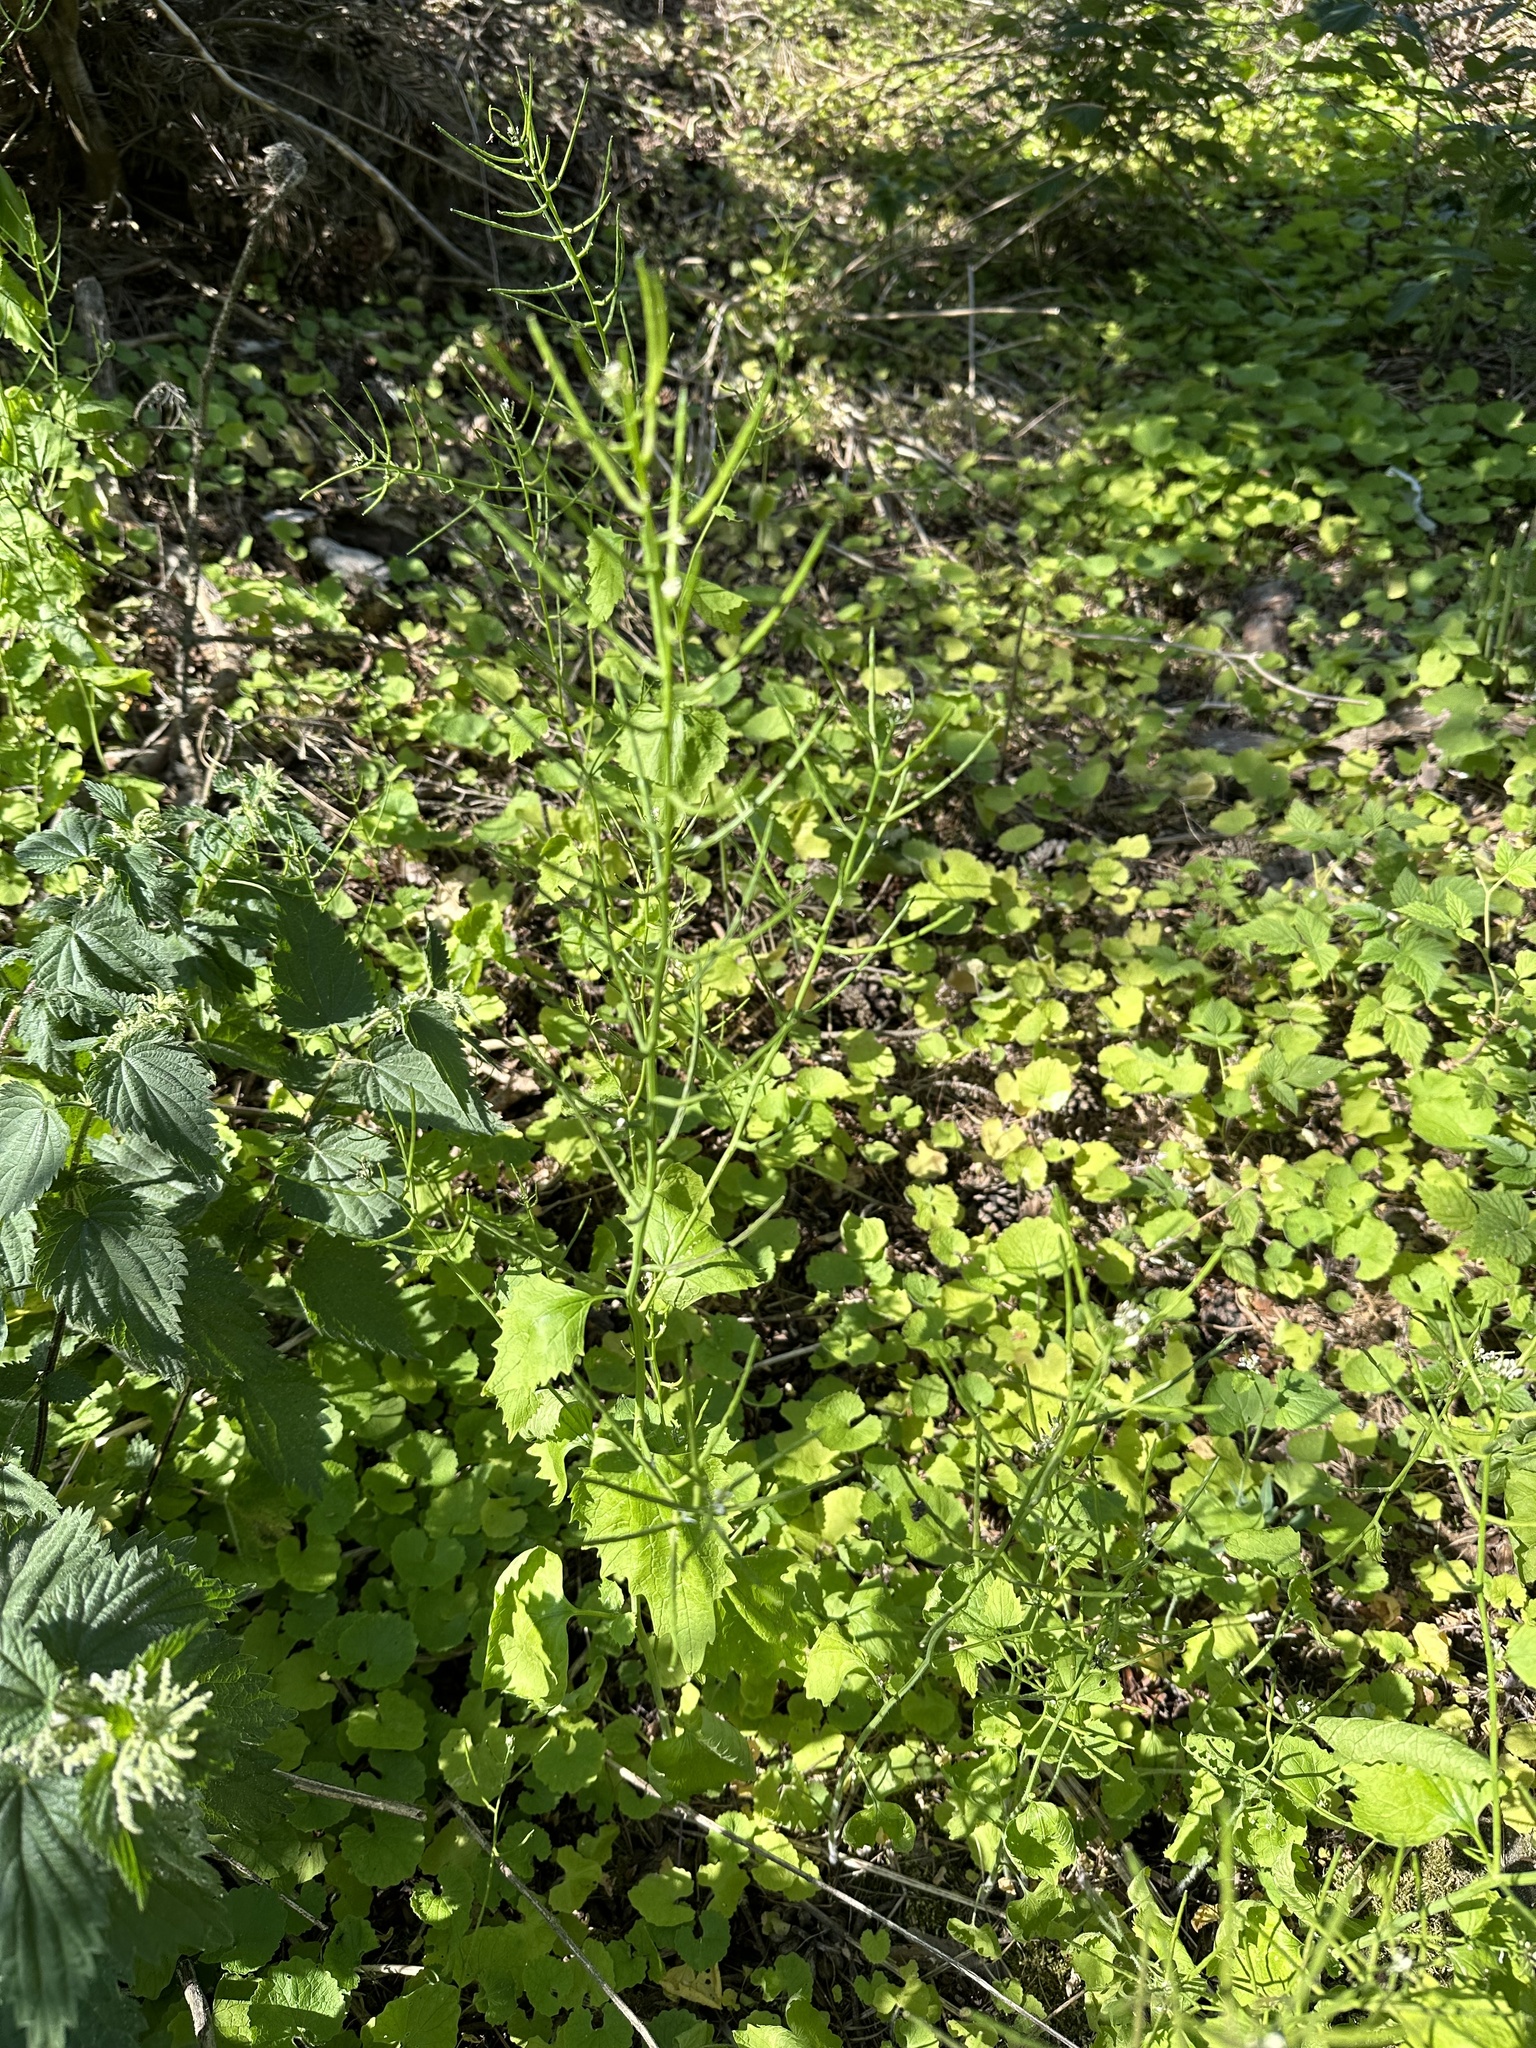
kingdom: Plantae
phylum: Tracheophyta
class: Magnoliopsida
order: Brassicales
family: Brassicaceae
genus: Alliaria
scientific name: Alliaria petiolata
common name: Garlic mustard
